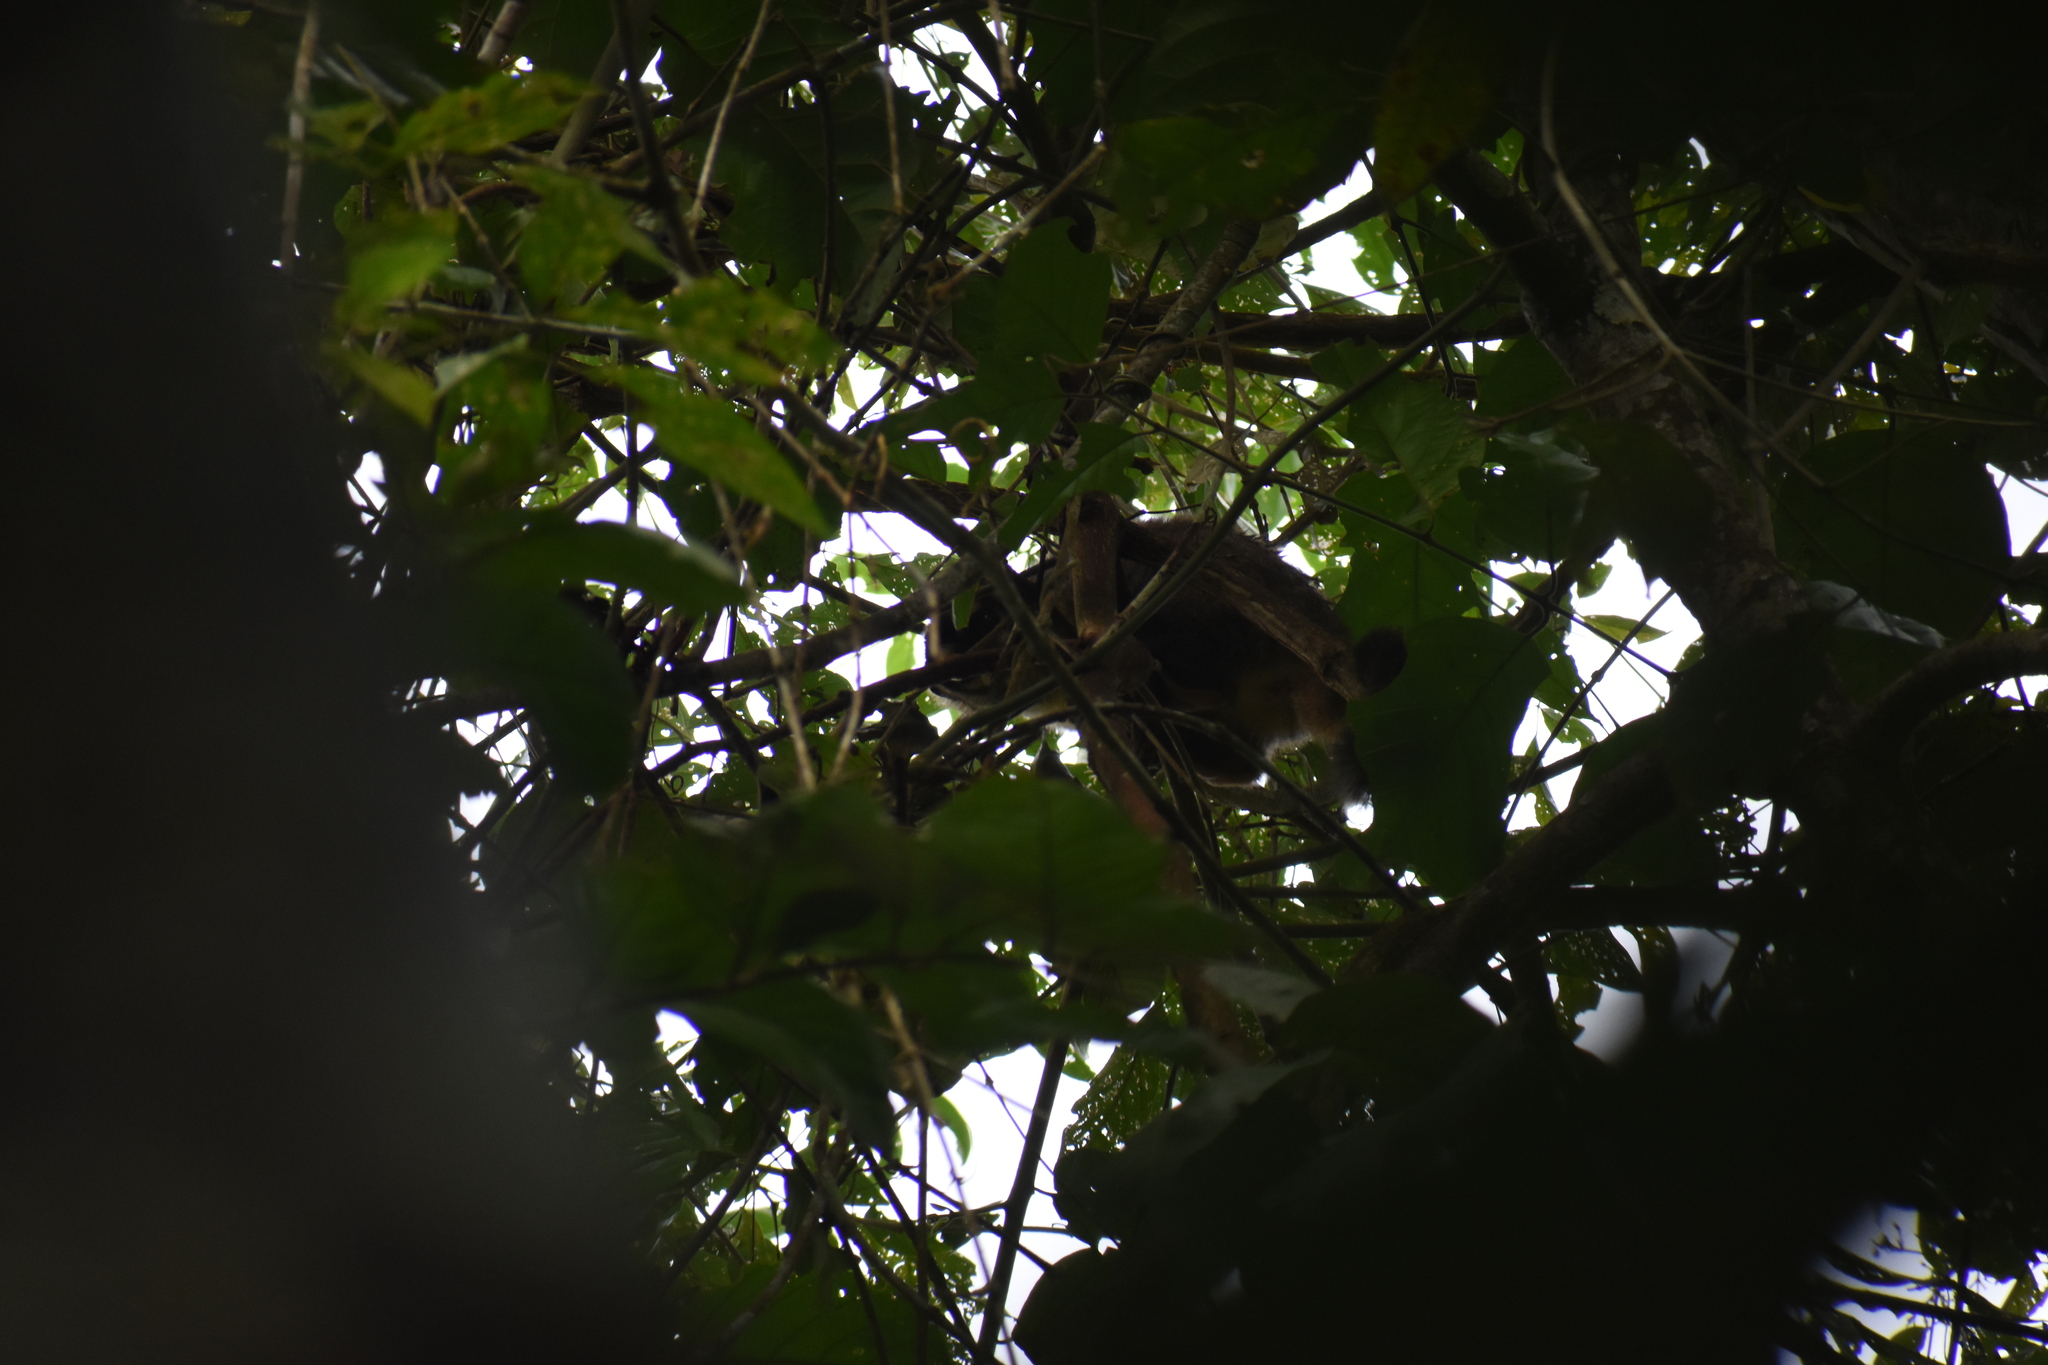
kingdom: Animalia
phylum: Chordata
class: Mammalia
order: Primates
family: Aotidae
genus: Aotus
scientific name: Aotus vociferans
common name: Noisy night monkey
